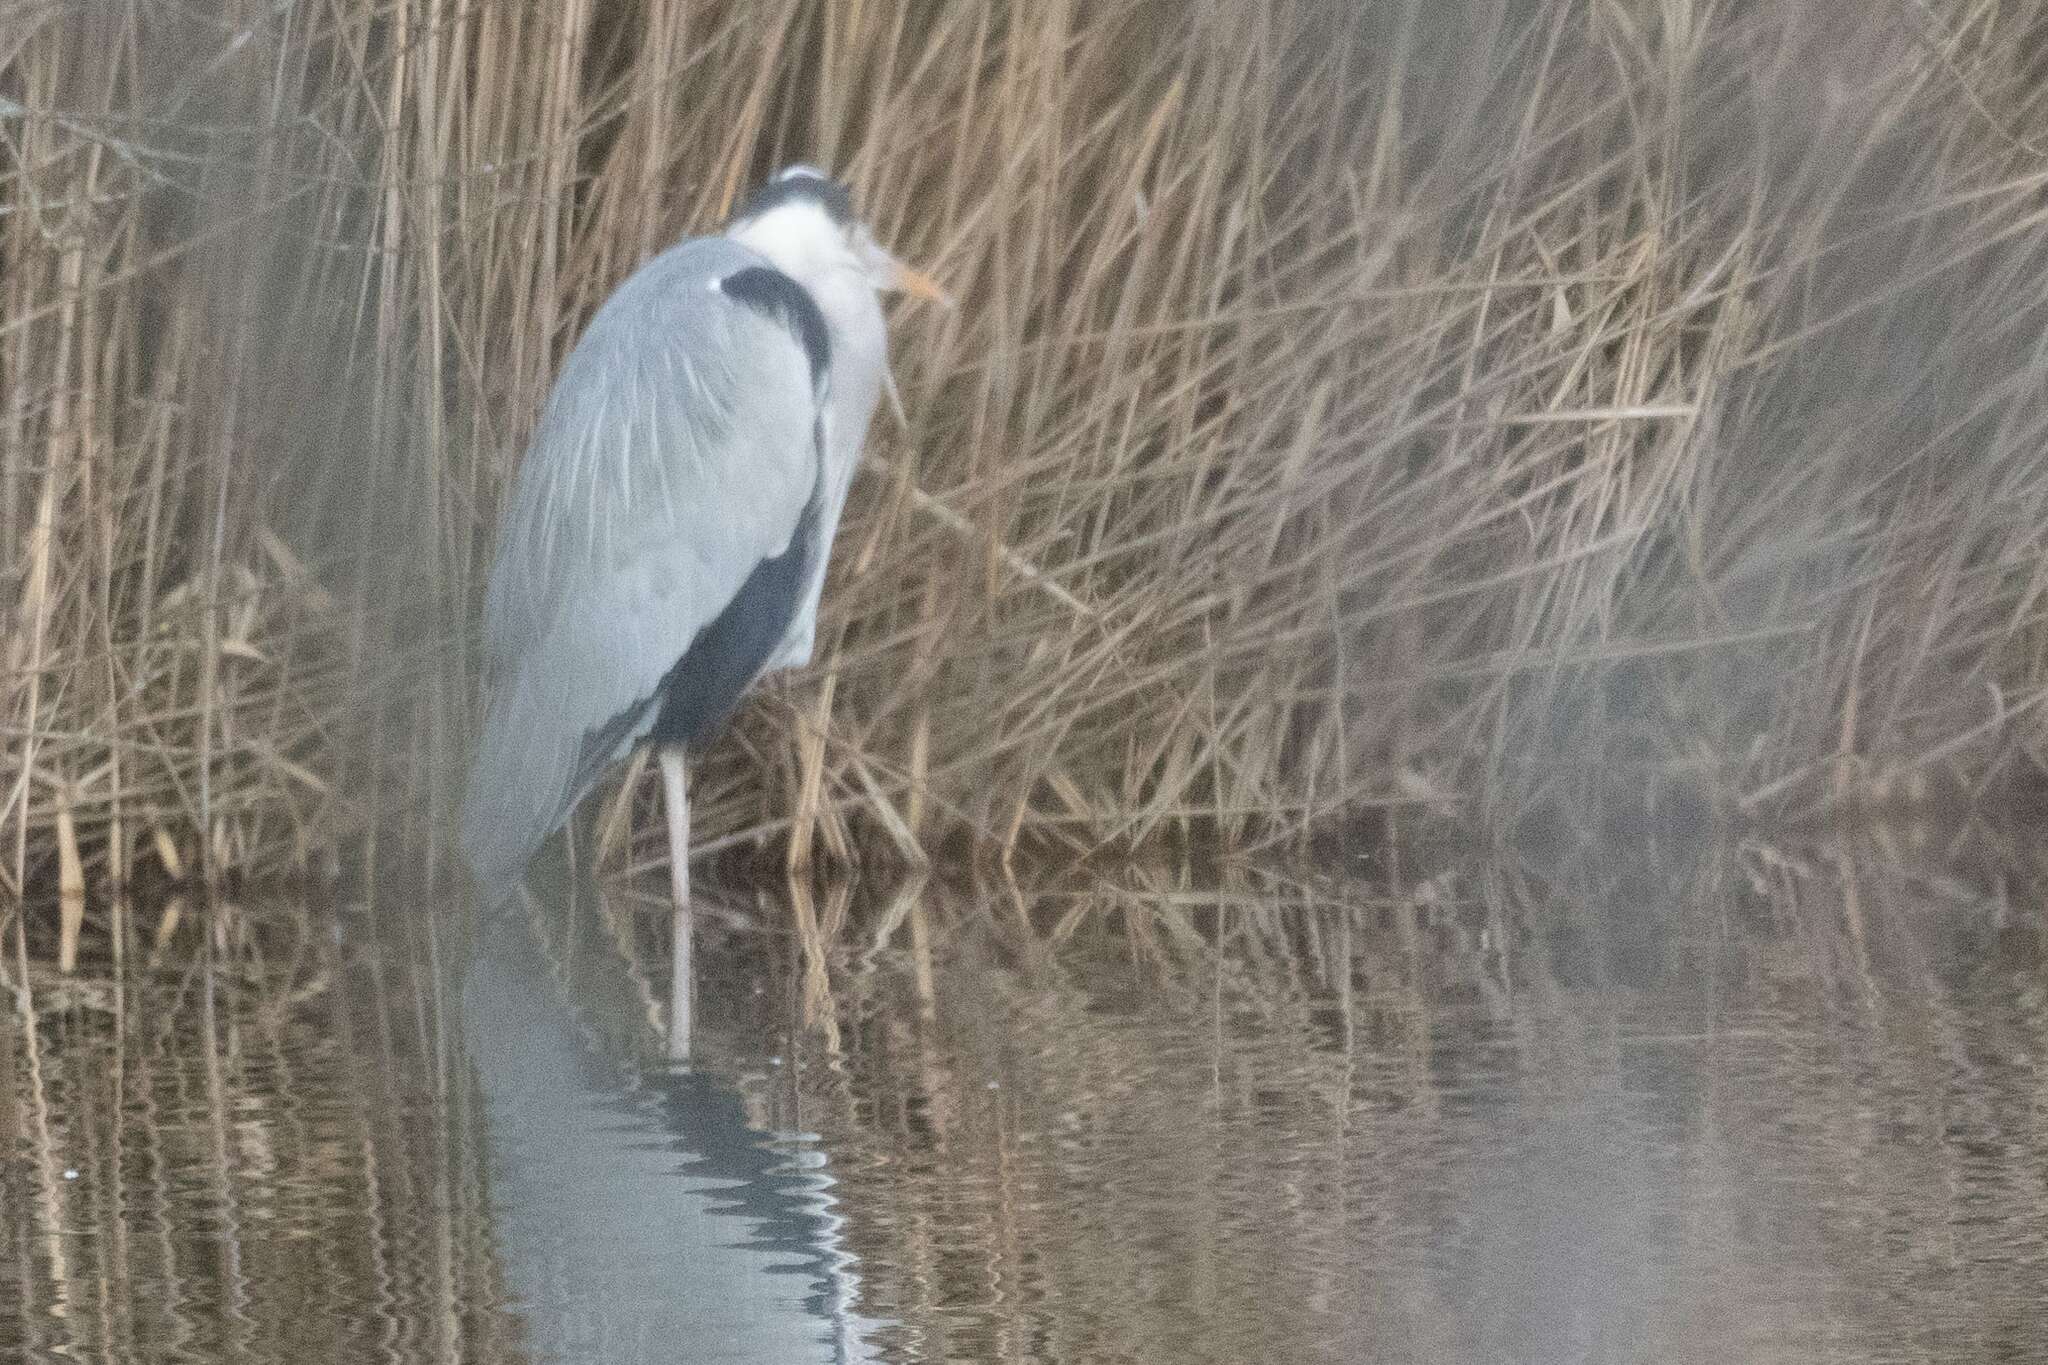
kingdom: Animalia
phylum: Chordata
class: Aves
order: Pelecaniformes
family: Ardeidae
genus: Ardea
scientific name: Ardea cinerea
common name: Grey heron
